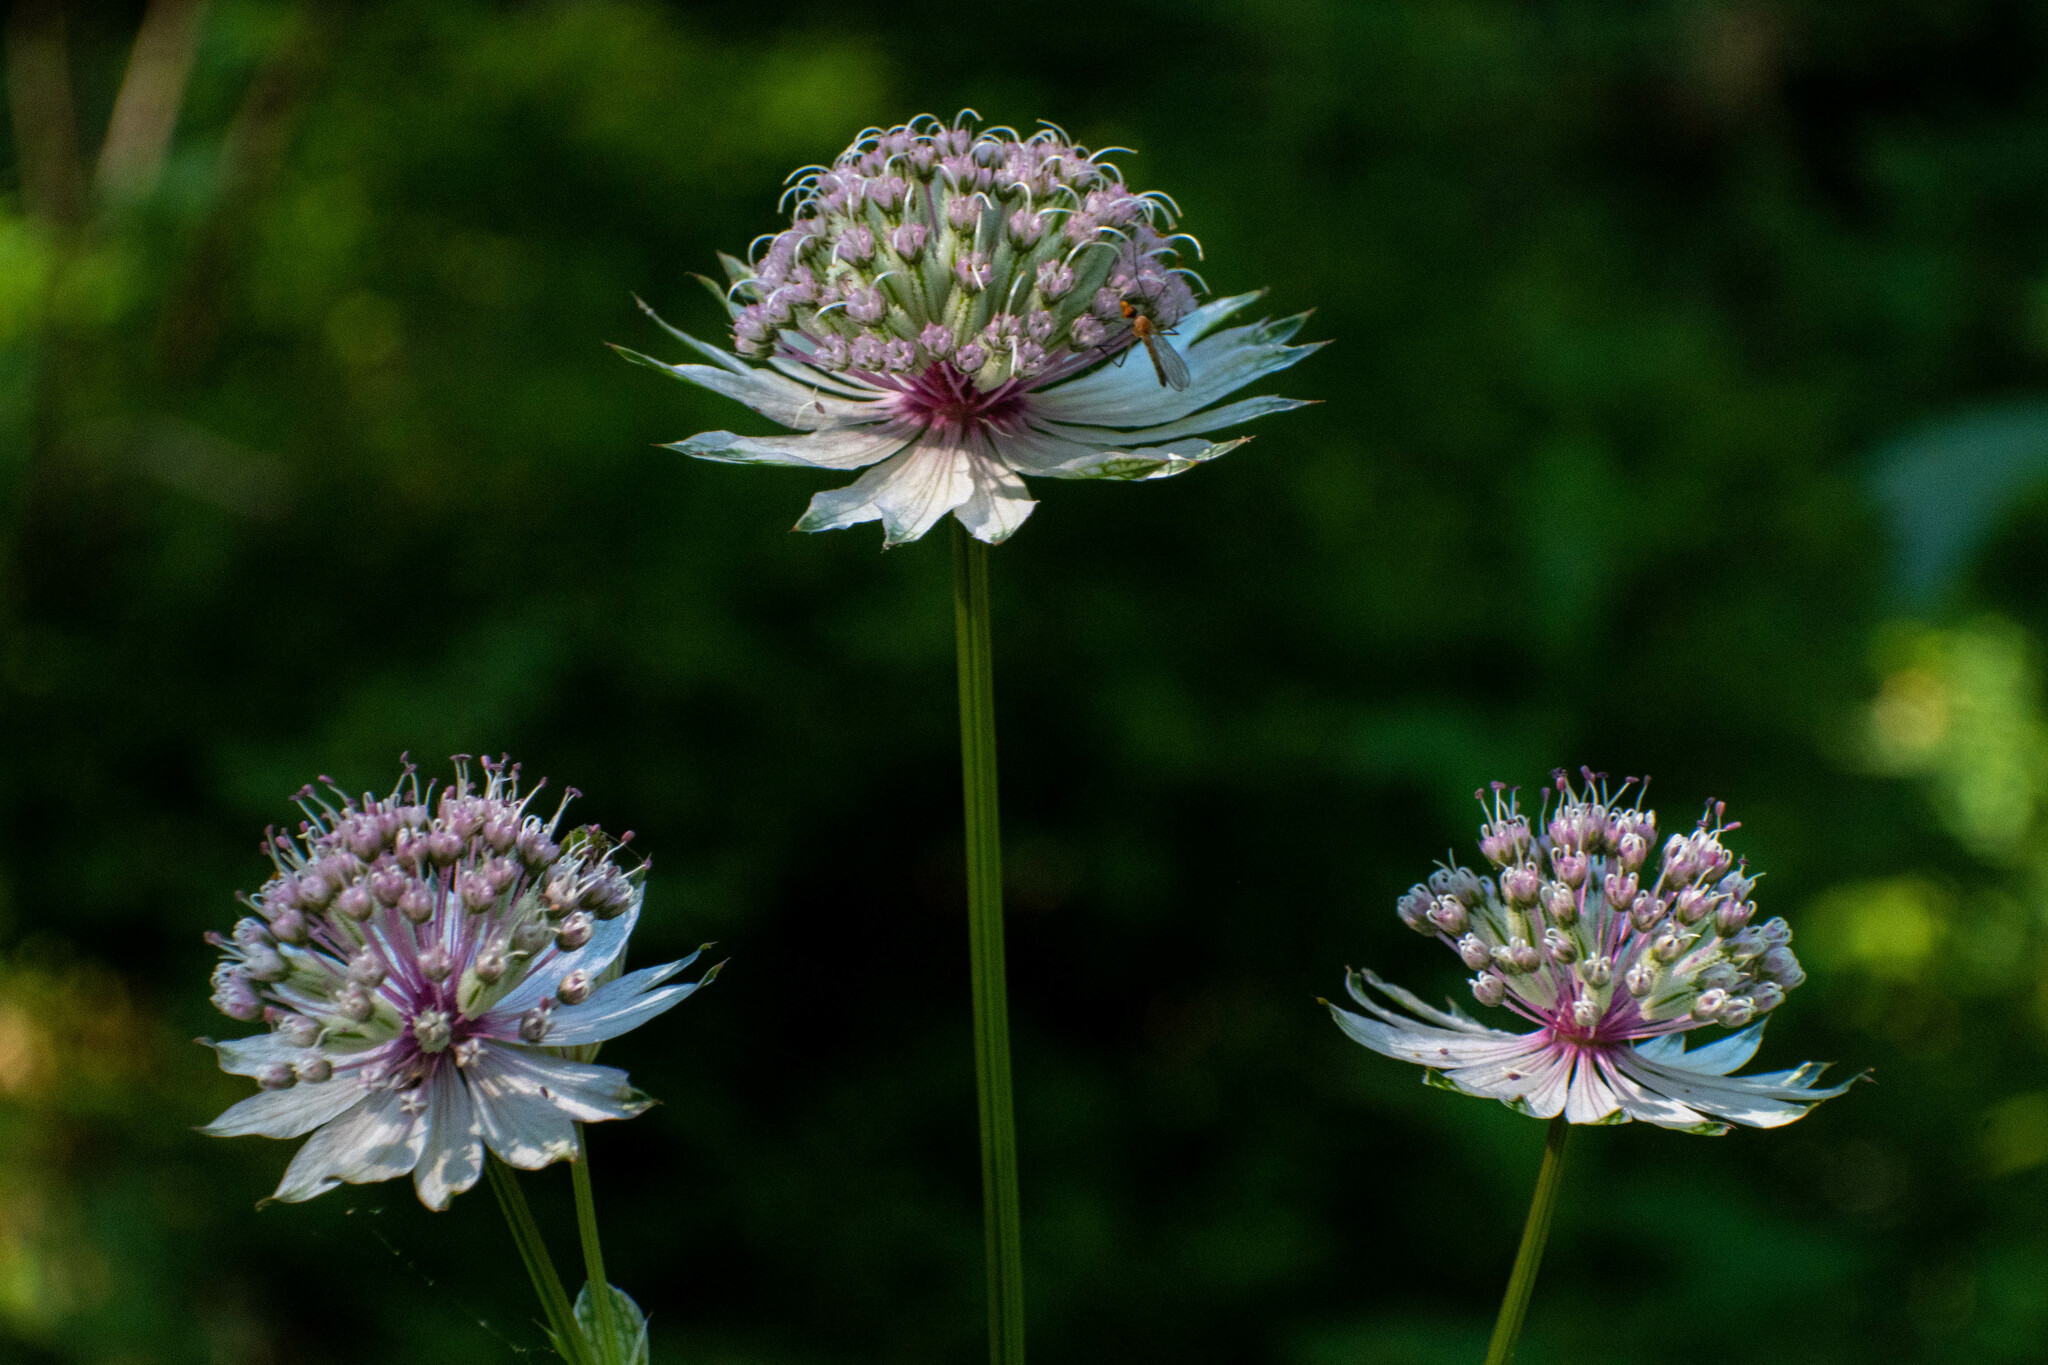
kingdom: Plantae
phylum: Tracheophyta
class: Magnoliopsida
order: Apiales
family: Apiaceae
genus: Astrantia
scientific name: Astrantia major
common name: Greater masterwort
